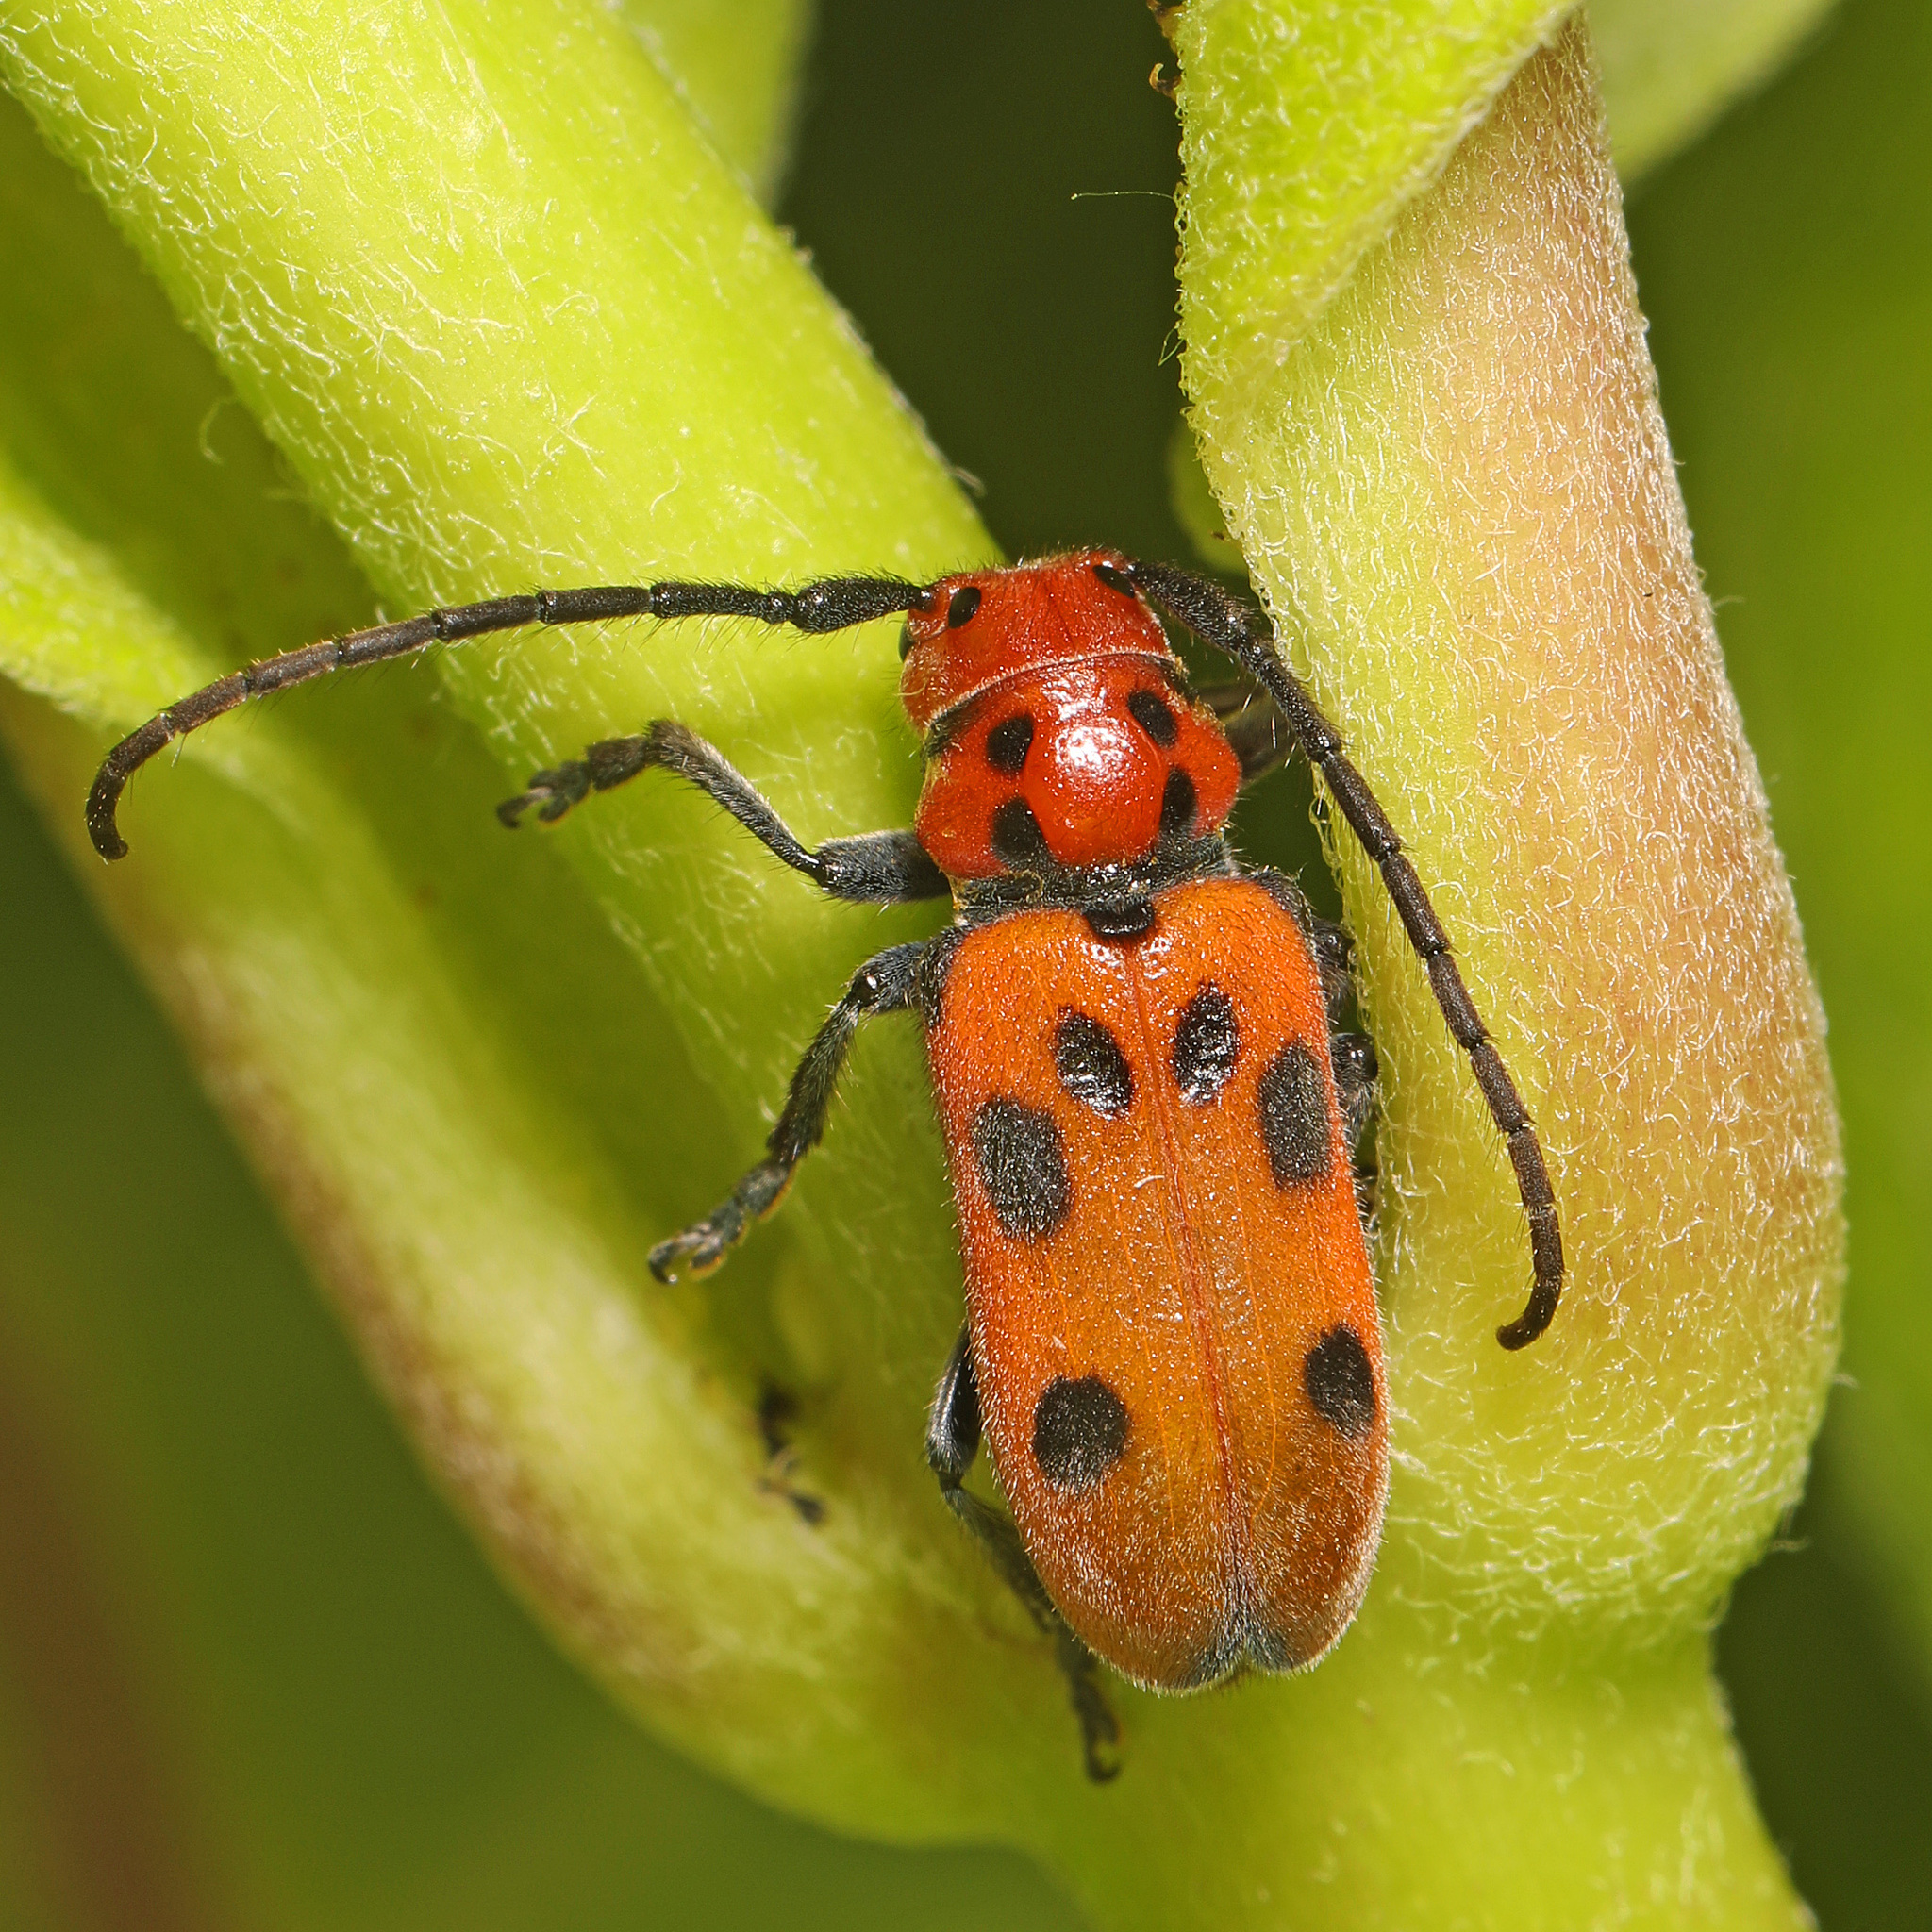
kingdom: Animalia
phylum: Arthropoda
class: Insecta
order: Coleoptera
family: Cerambycidae
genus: Tetraopes
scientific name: Tetraopes tetrophthalmus
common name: Red milkweed beetle
